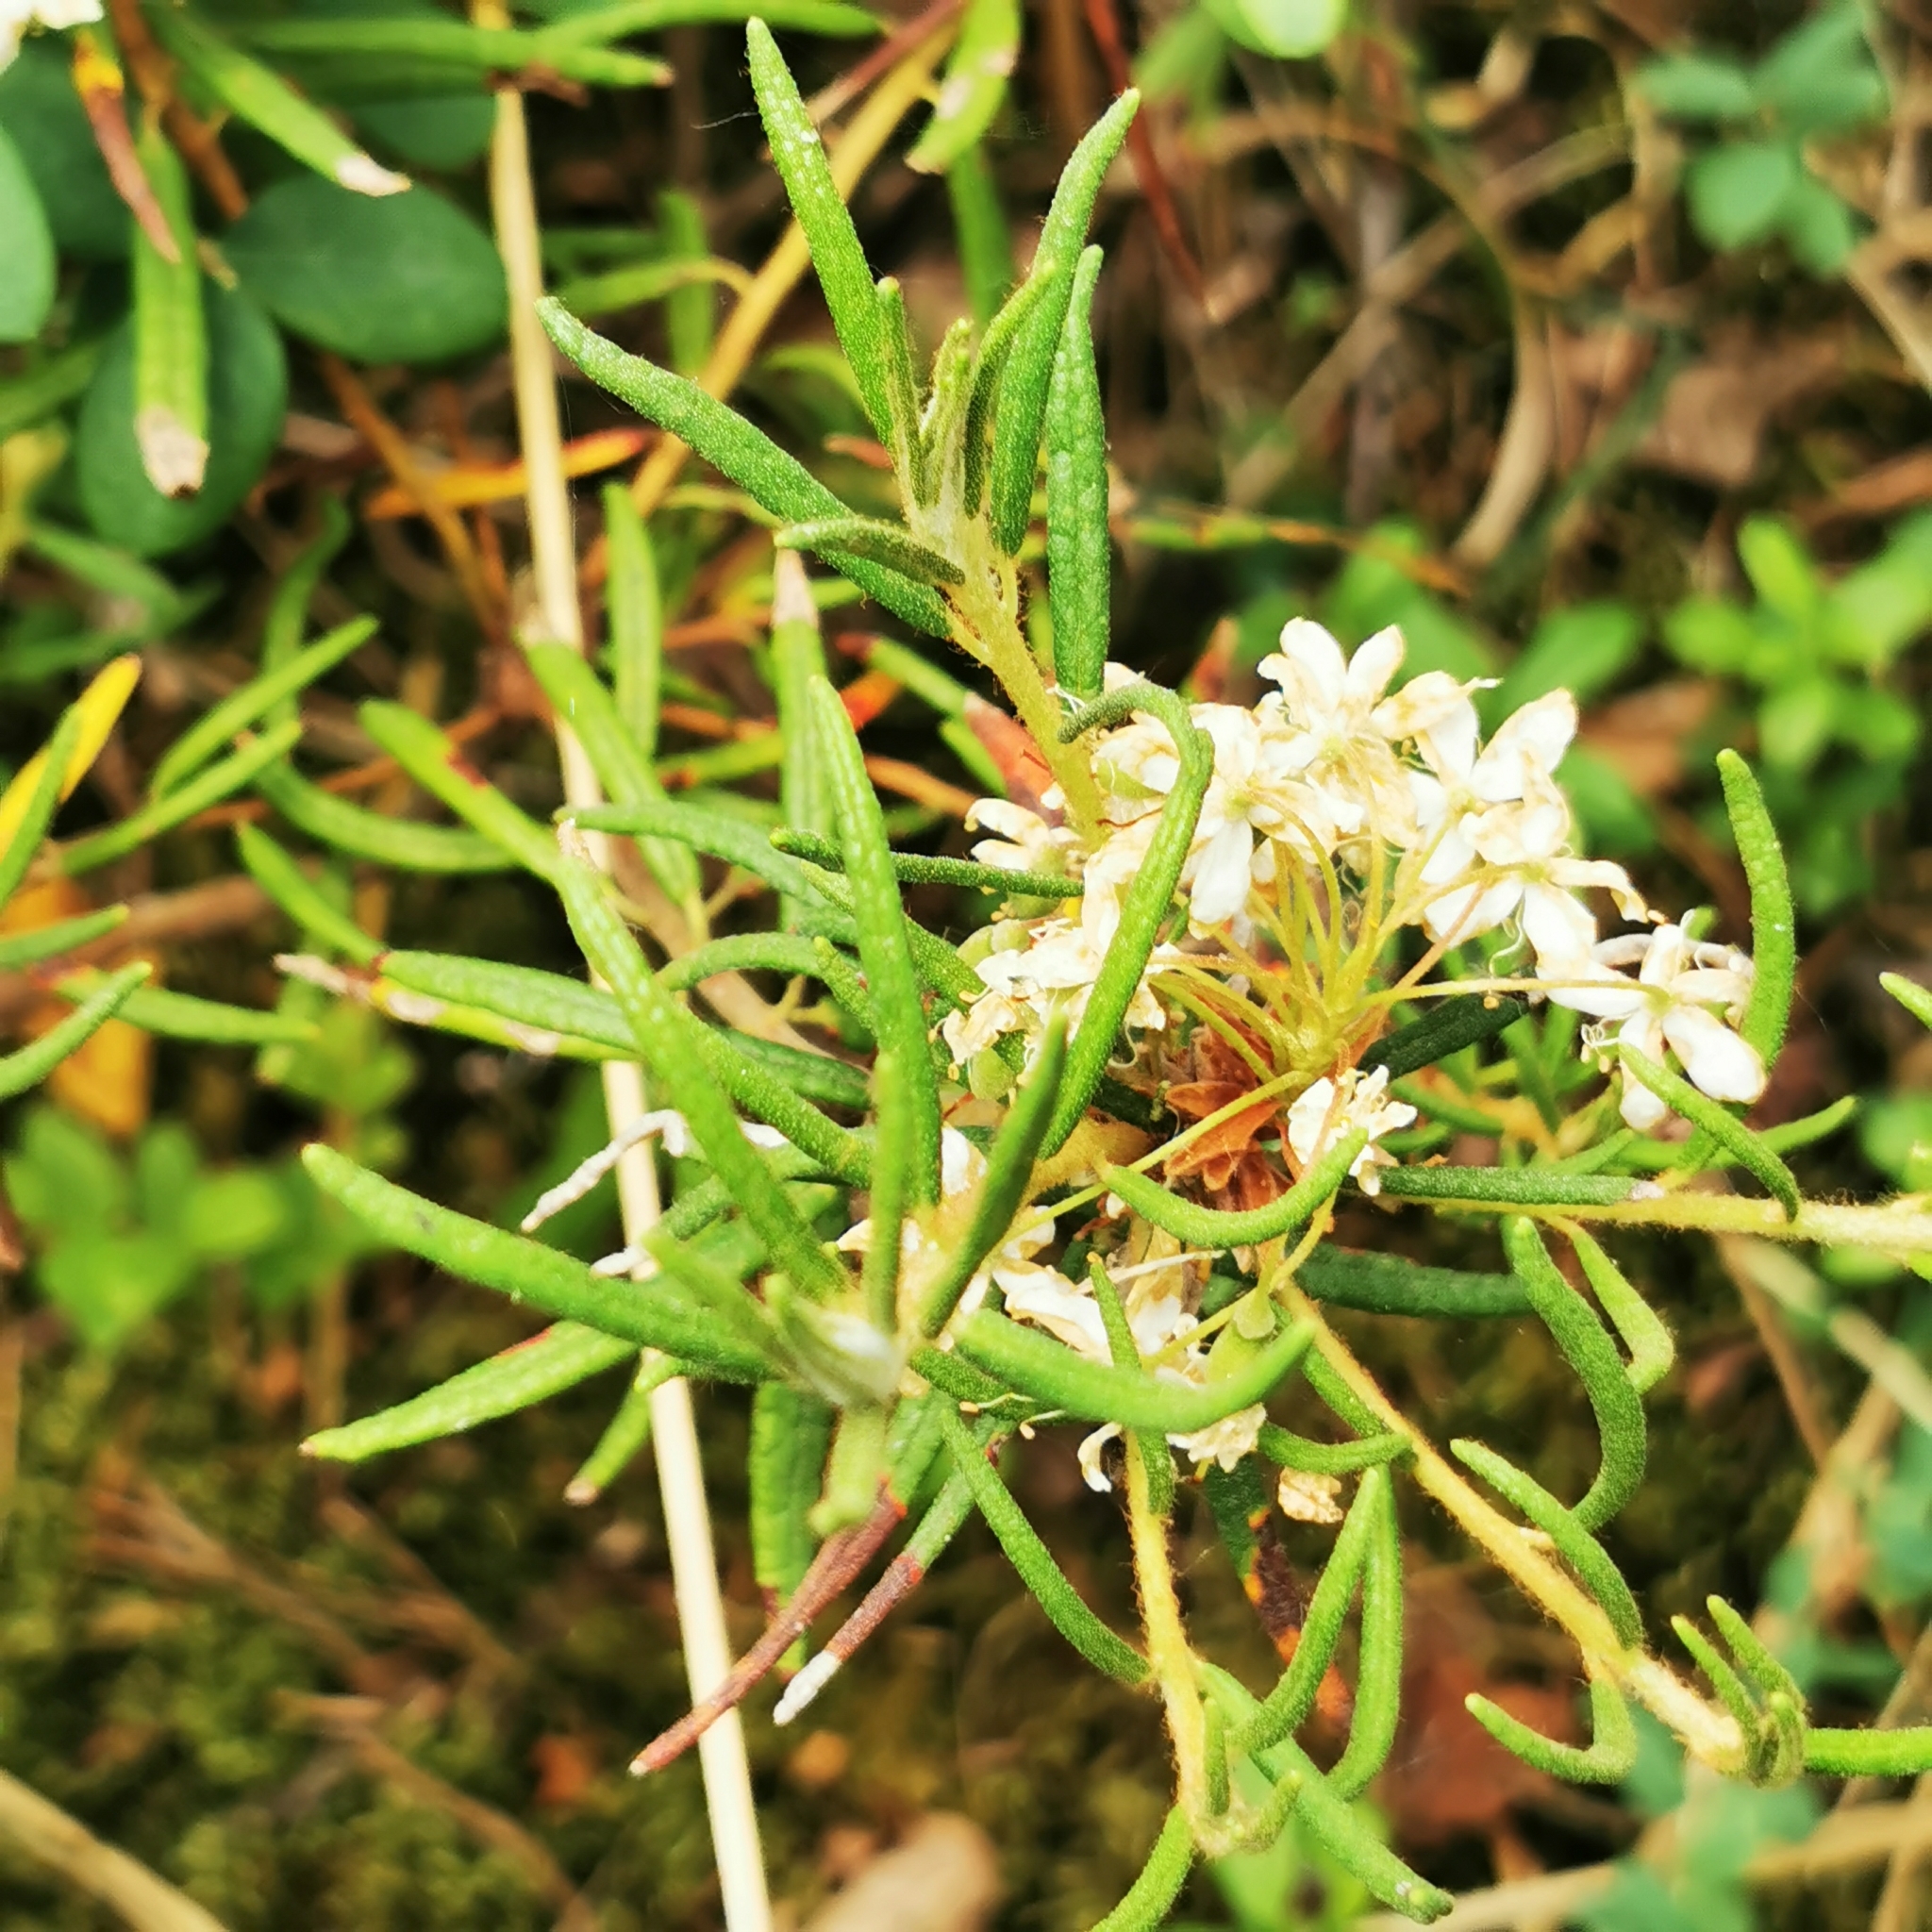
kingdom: Plantae
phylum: Tracheophyta
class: Magnoliopsida
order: Ericales
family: Ericaceae
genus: Rhododendron
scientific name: Rhododendron tomentosum
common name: Marsh labrador tea
